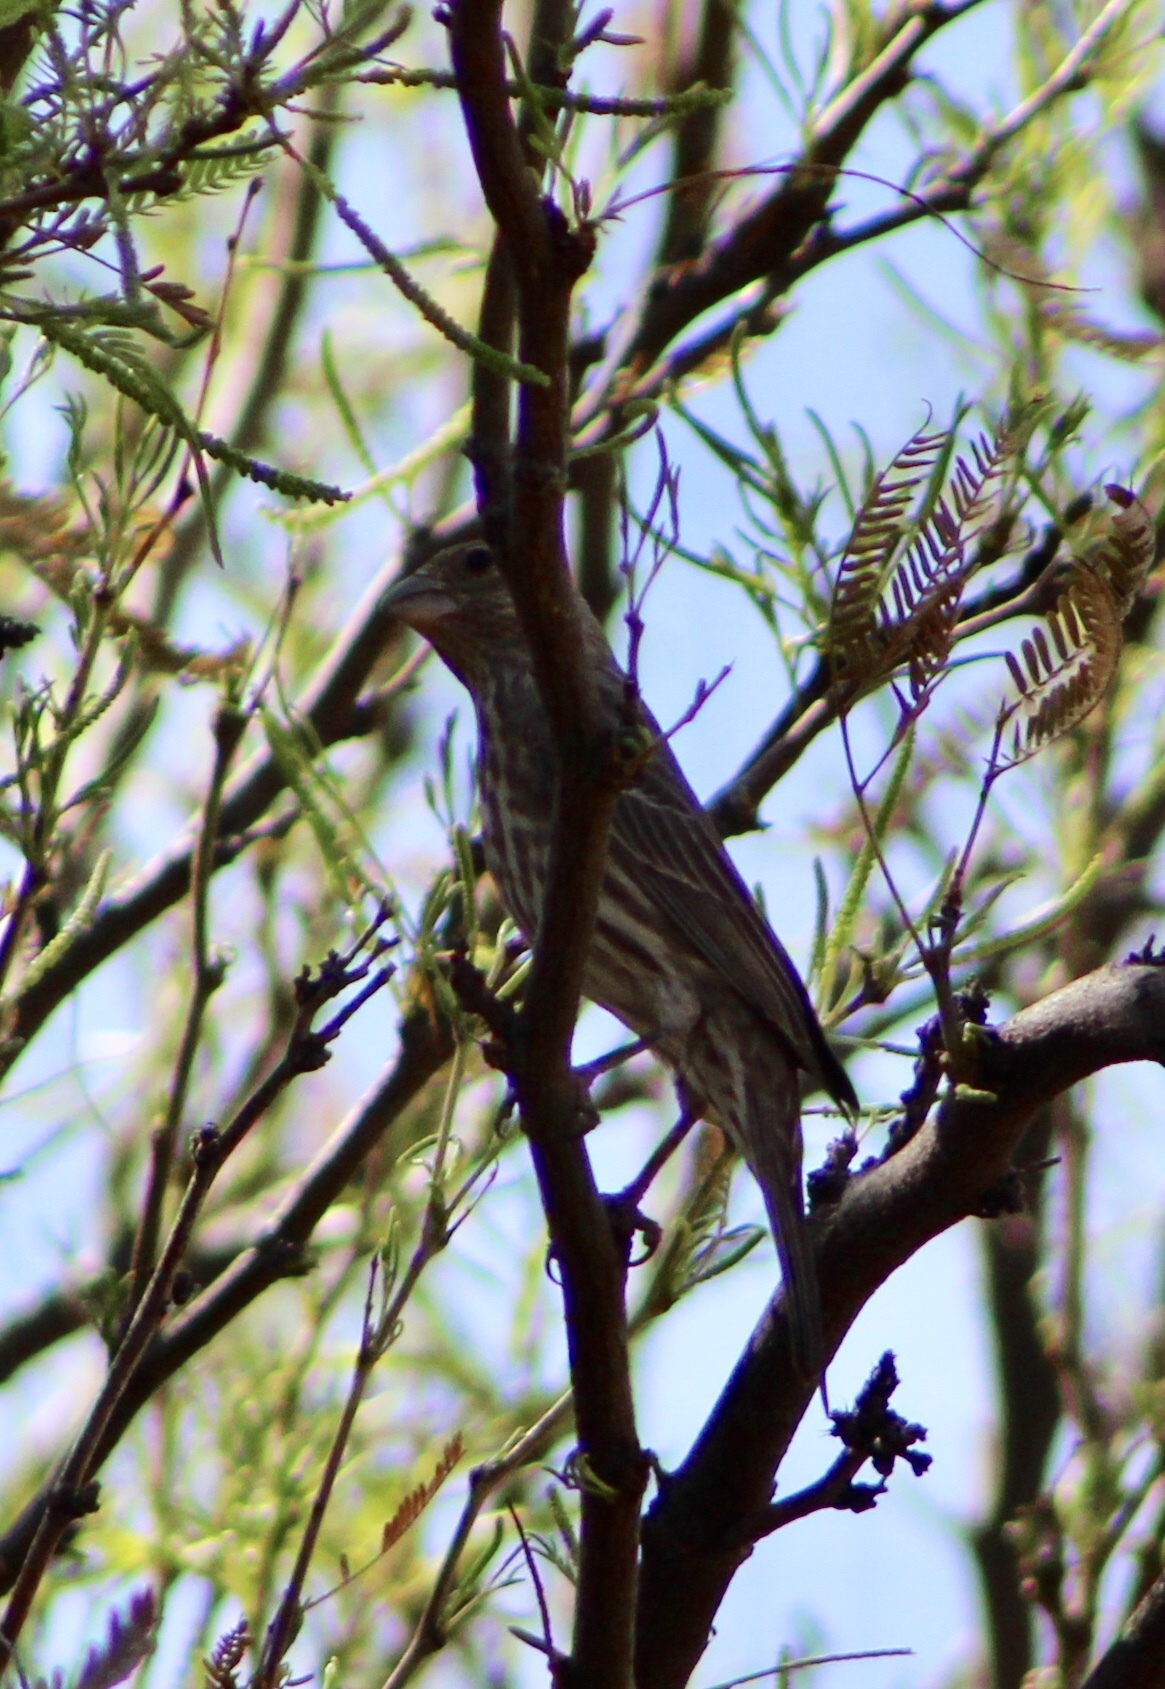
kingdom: Animalia
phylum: Chordata
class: Aves
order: Passeriformes
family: Fringillidae
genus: Haemorhous
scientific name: Haemorhous mexicanus
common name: House finch
